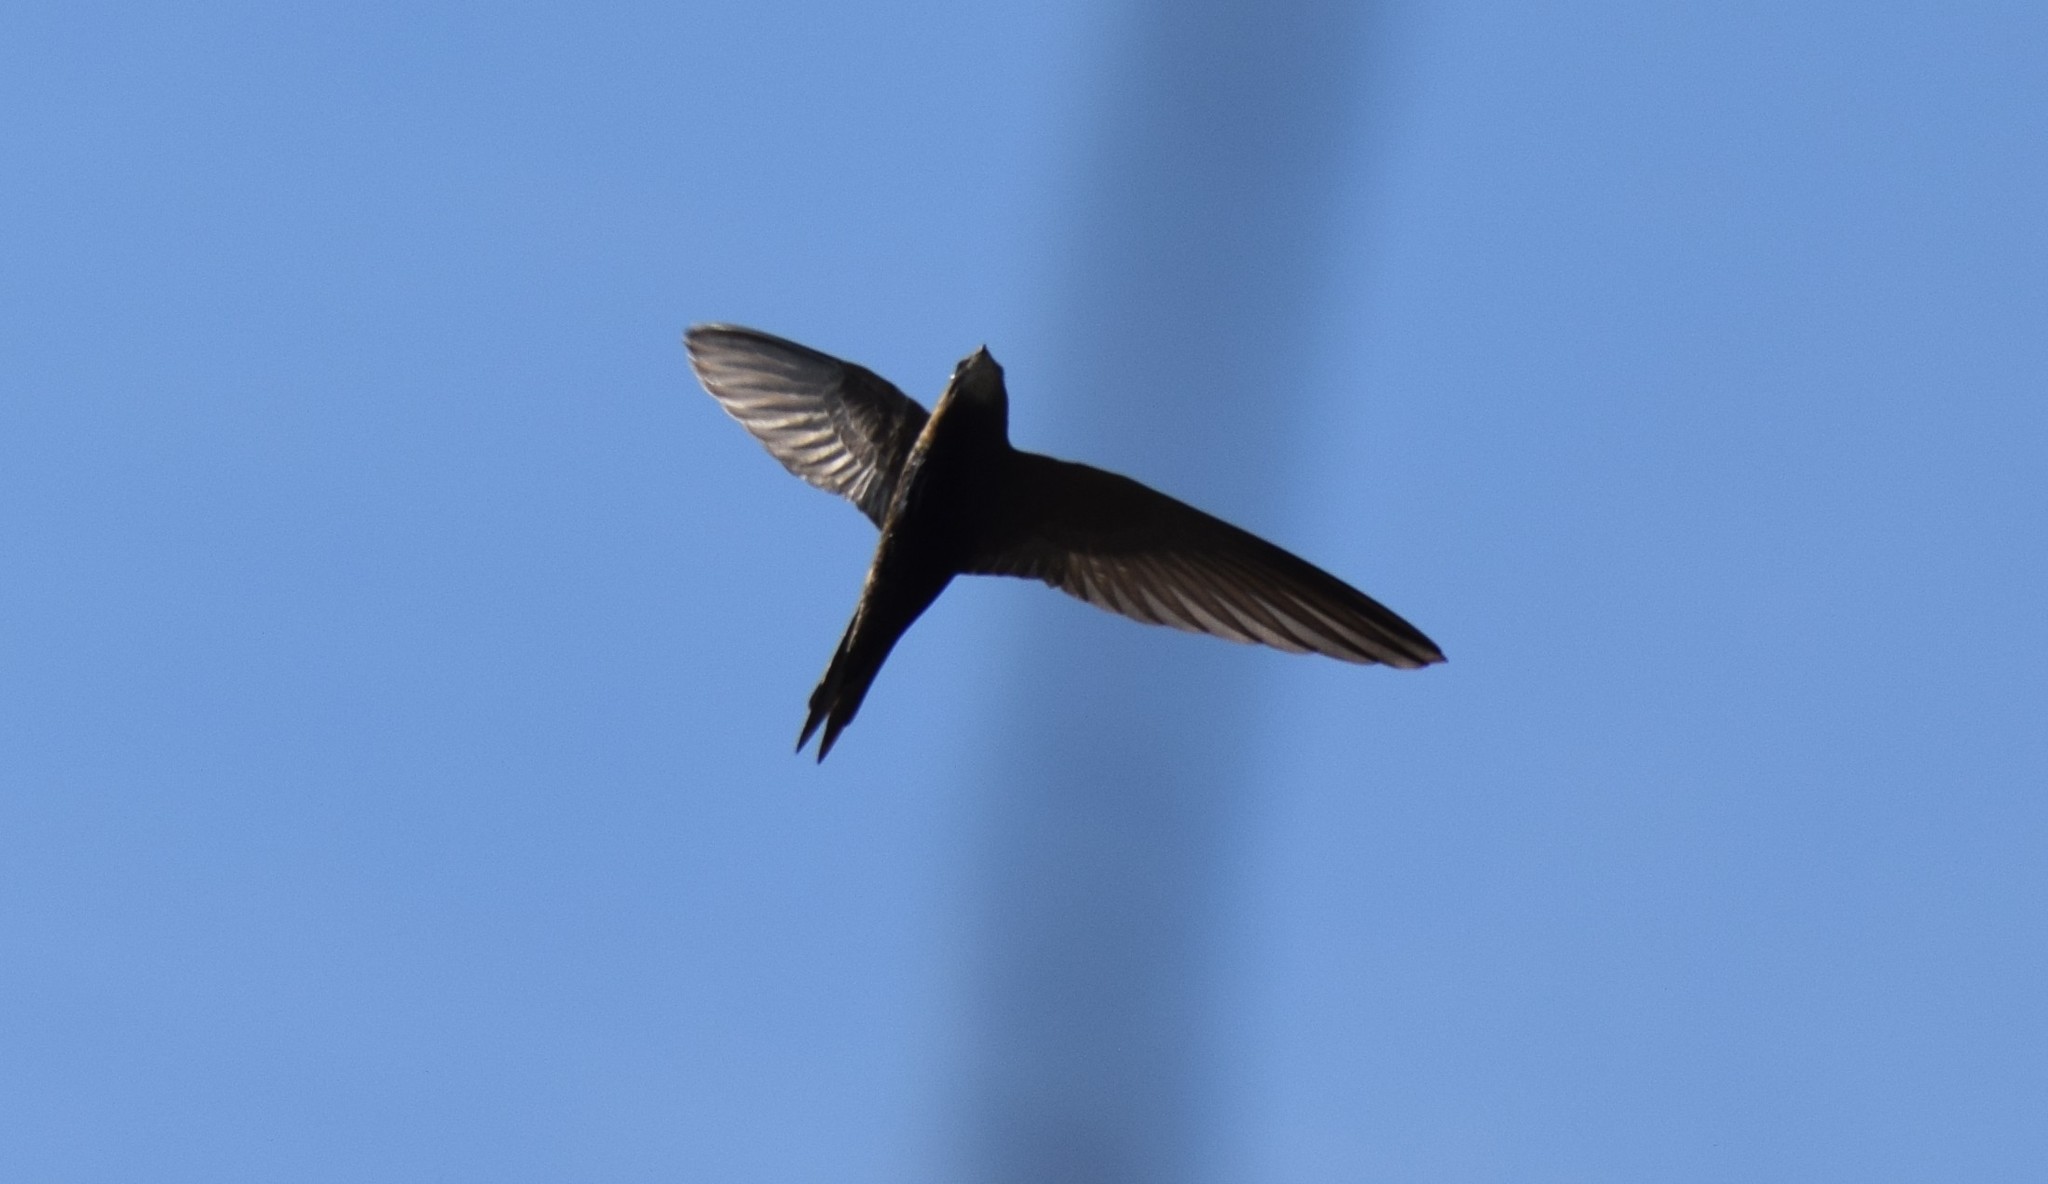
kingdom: Animalia
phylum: Chordata
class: Aves
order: Apodiformes
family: Apodidae
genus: Apus
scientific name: Apus apus
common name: Common swift
